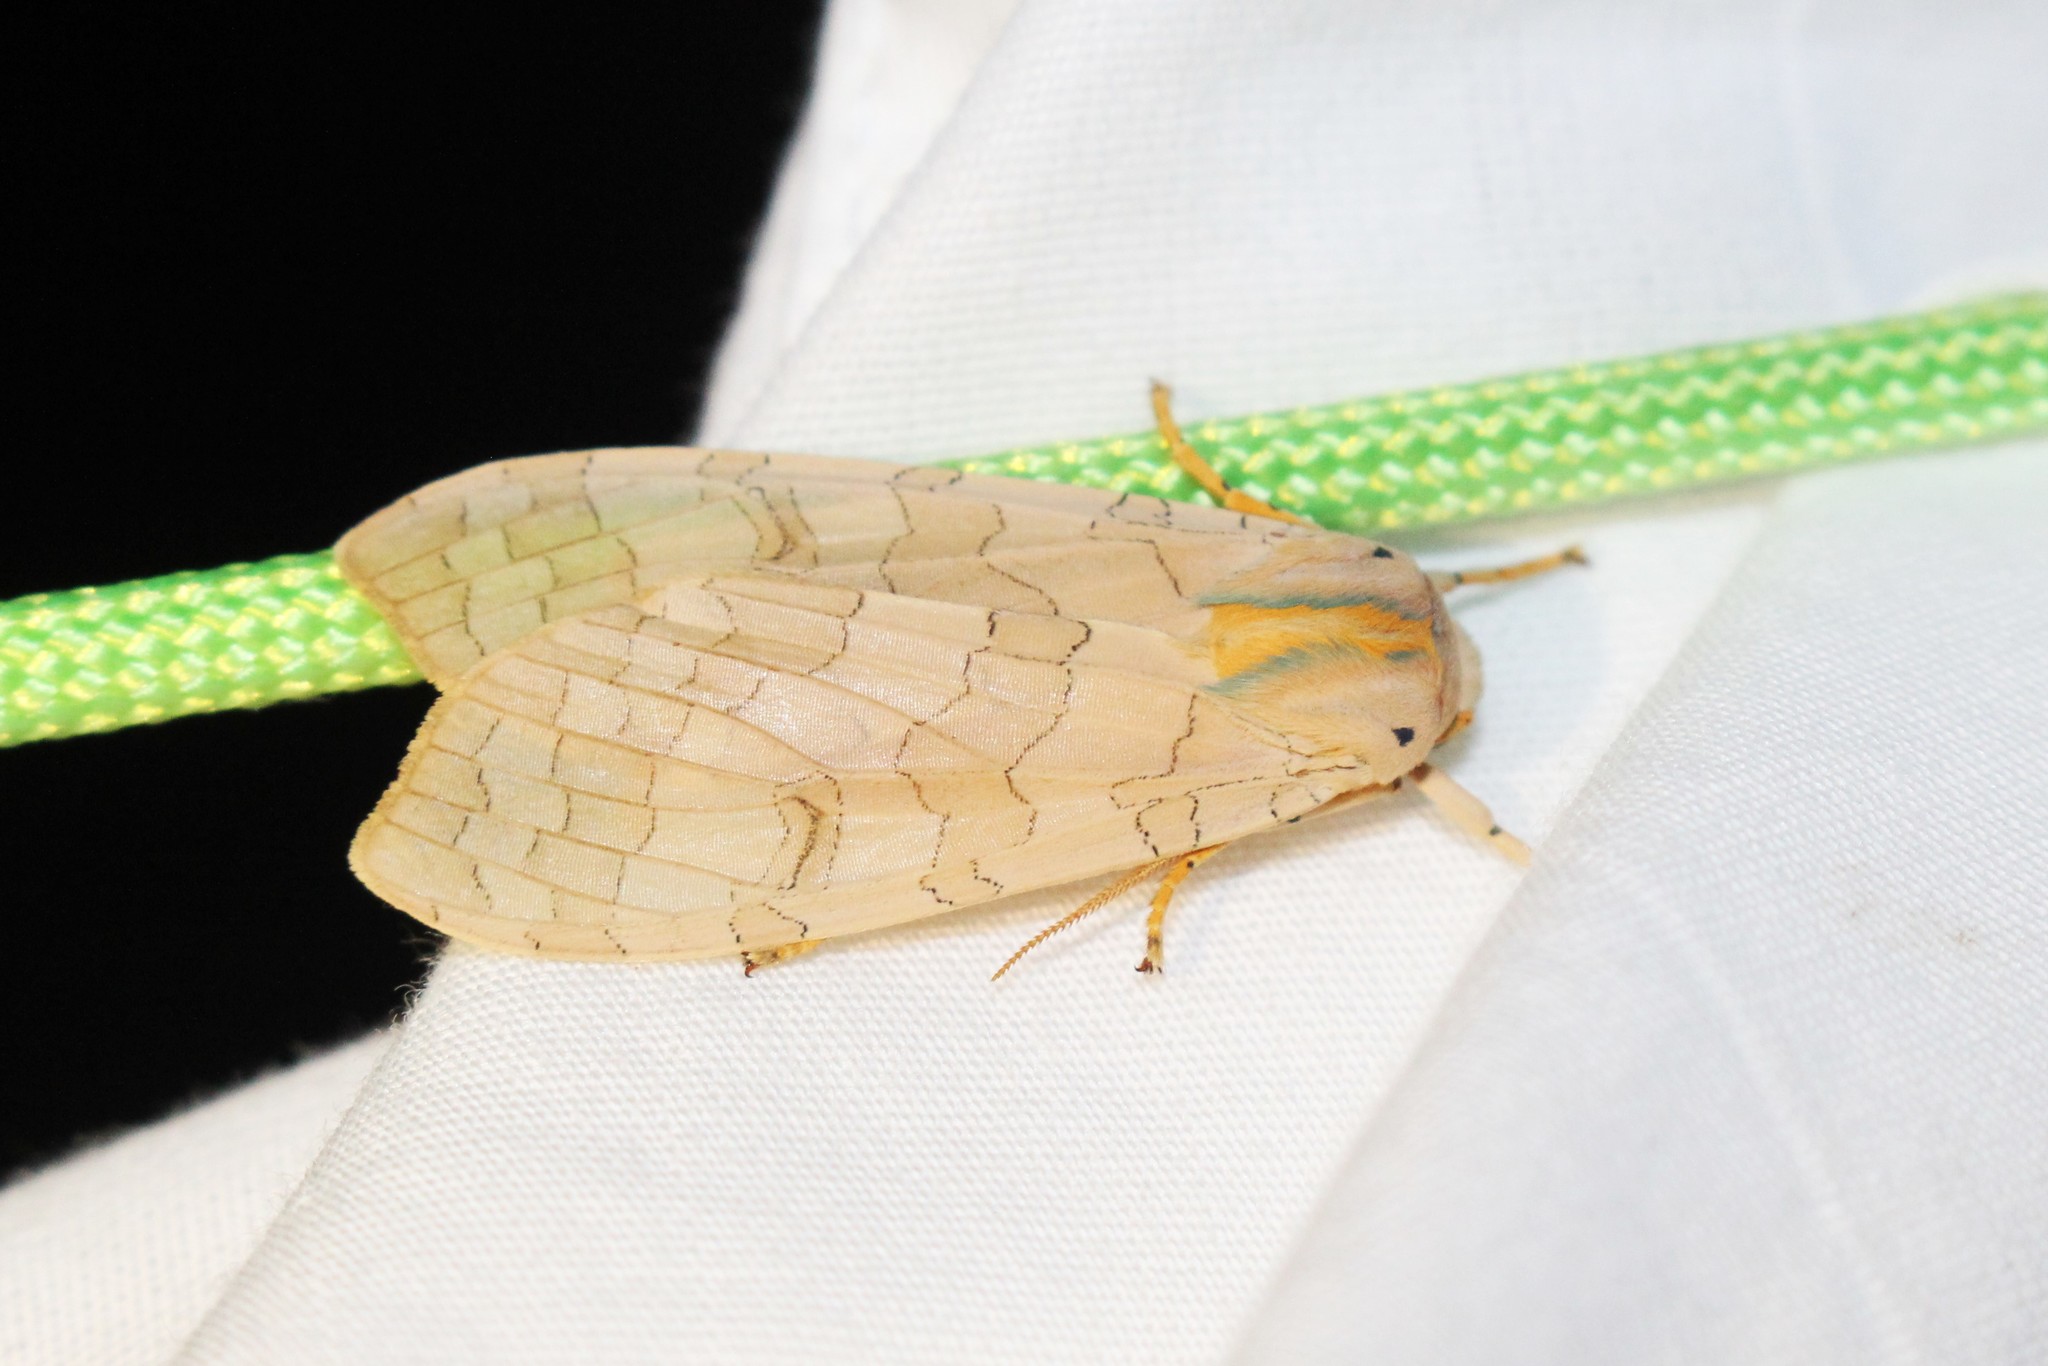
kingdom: Animalia
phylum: Arthropoda
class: Insecta
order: Lepidoptera
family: Erebidae
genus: Halysidota
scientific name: Halysidota tessellaris
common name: Banded tussock moth
